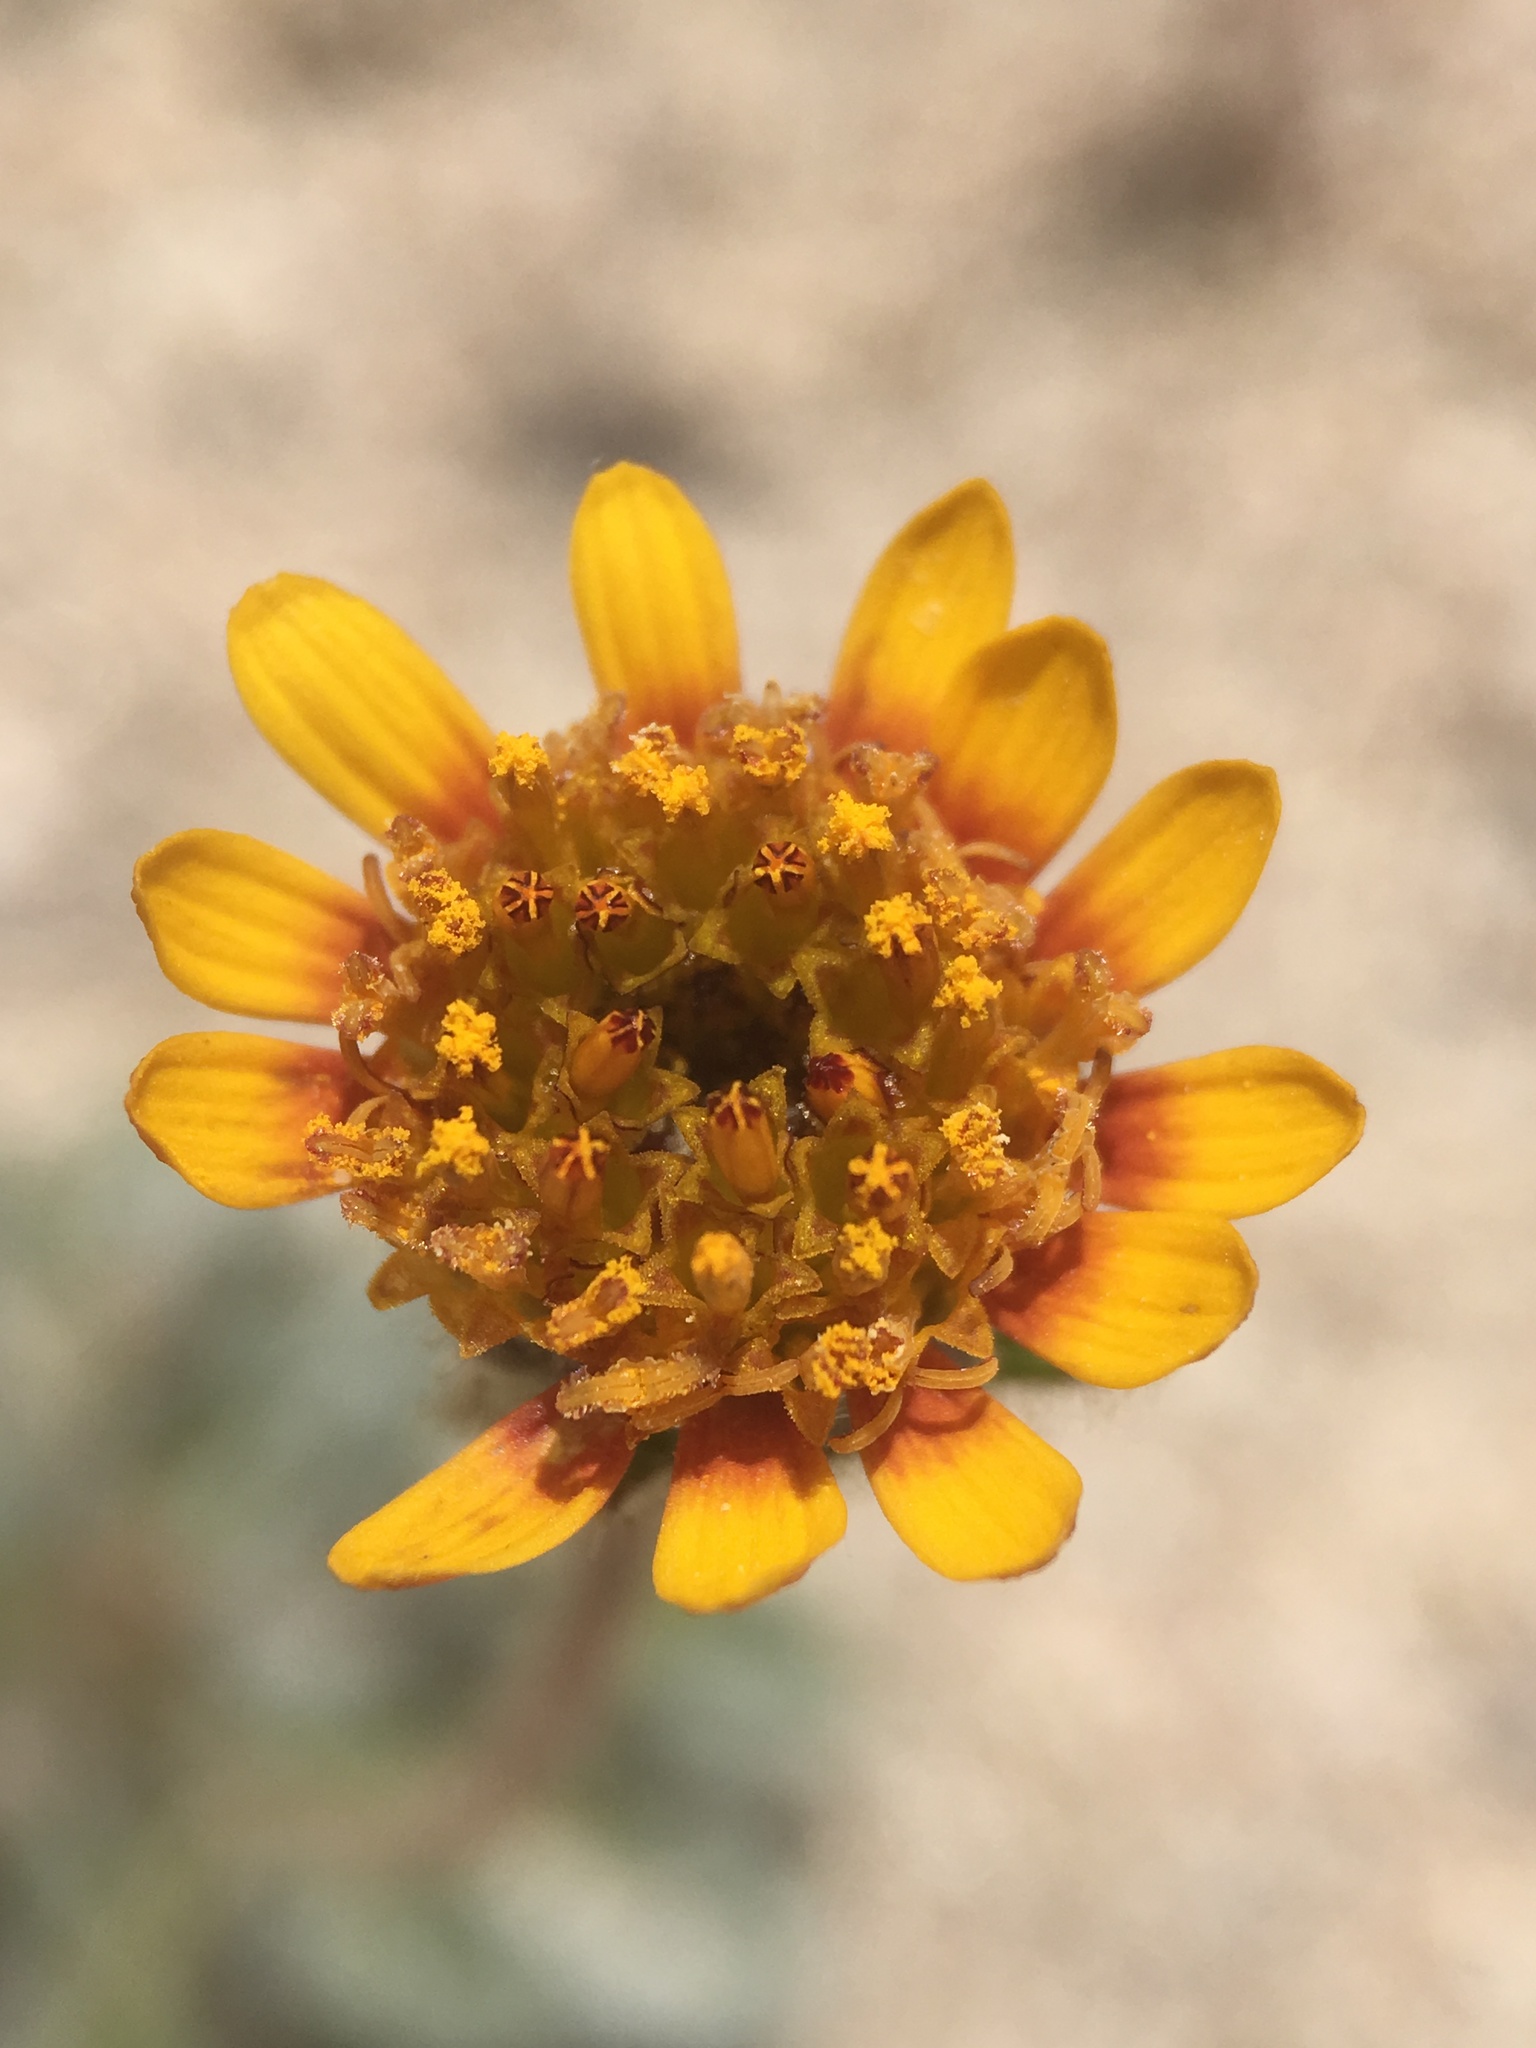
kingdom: Plantae
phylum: Tracheophyta
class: Magnoliopsida
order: Asterales
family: Asteraceae
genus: Hulsea
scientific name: Hulsea vestita
